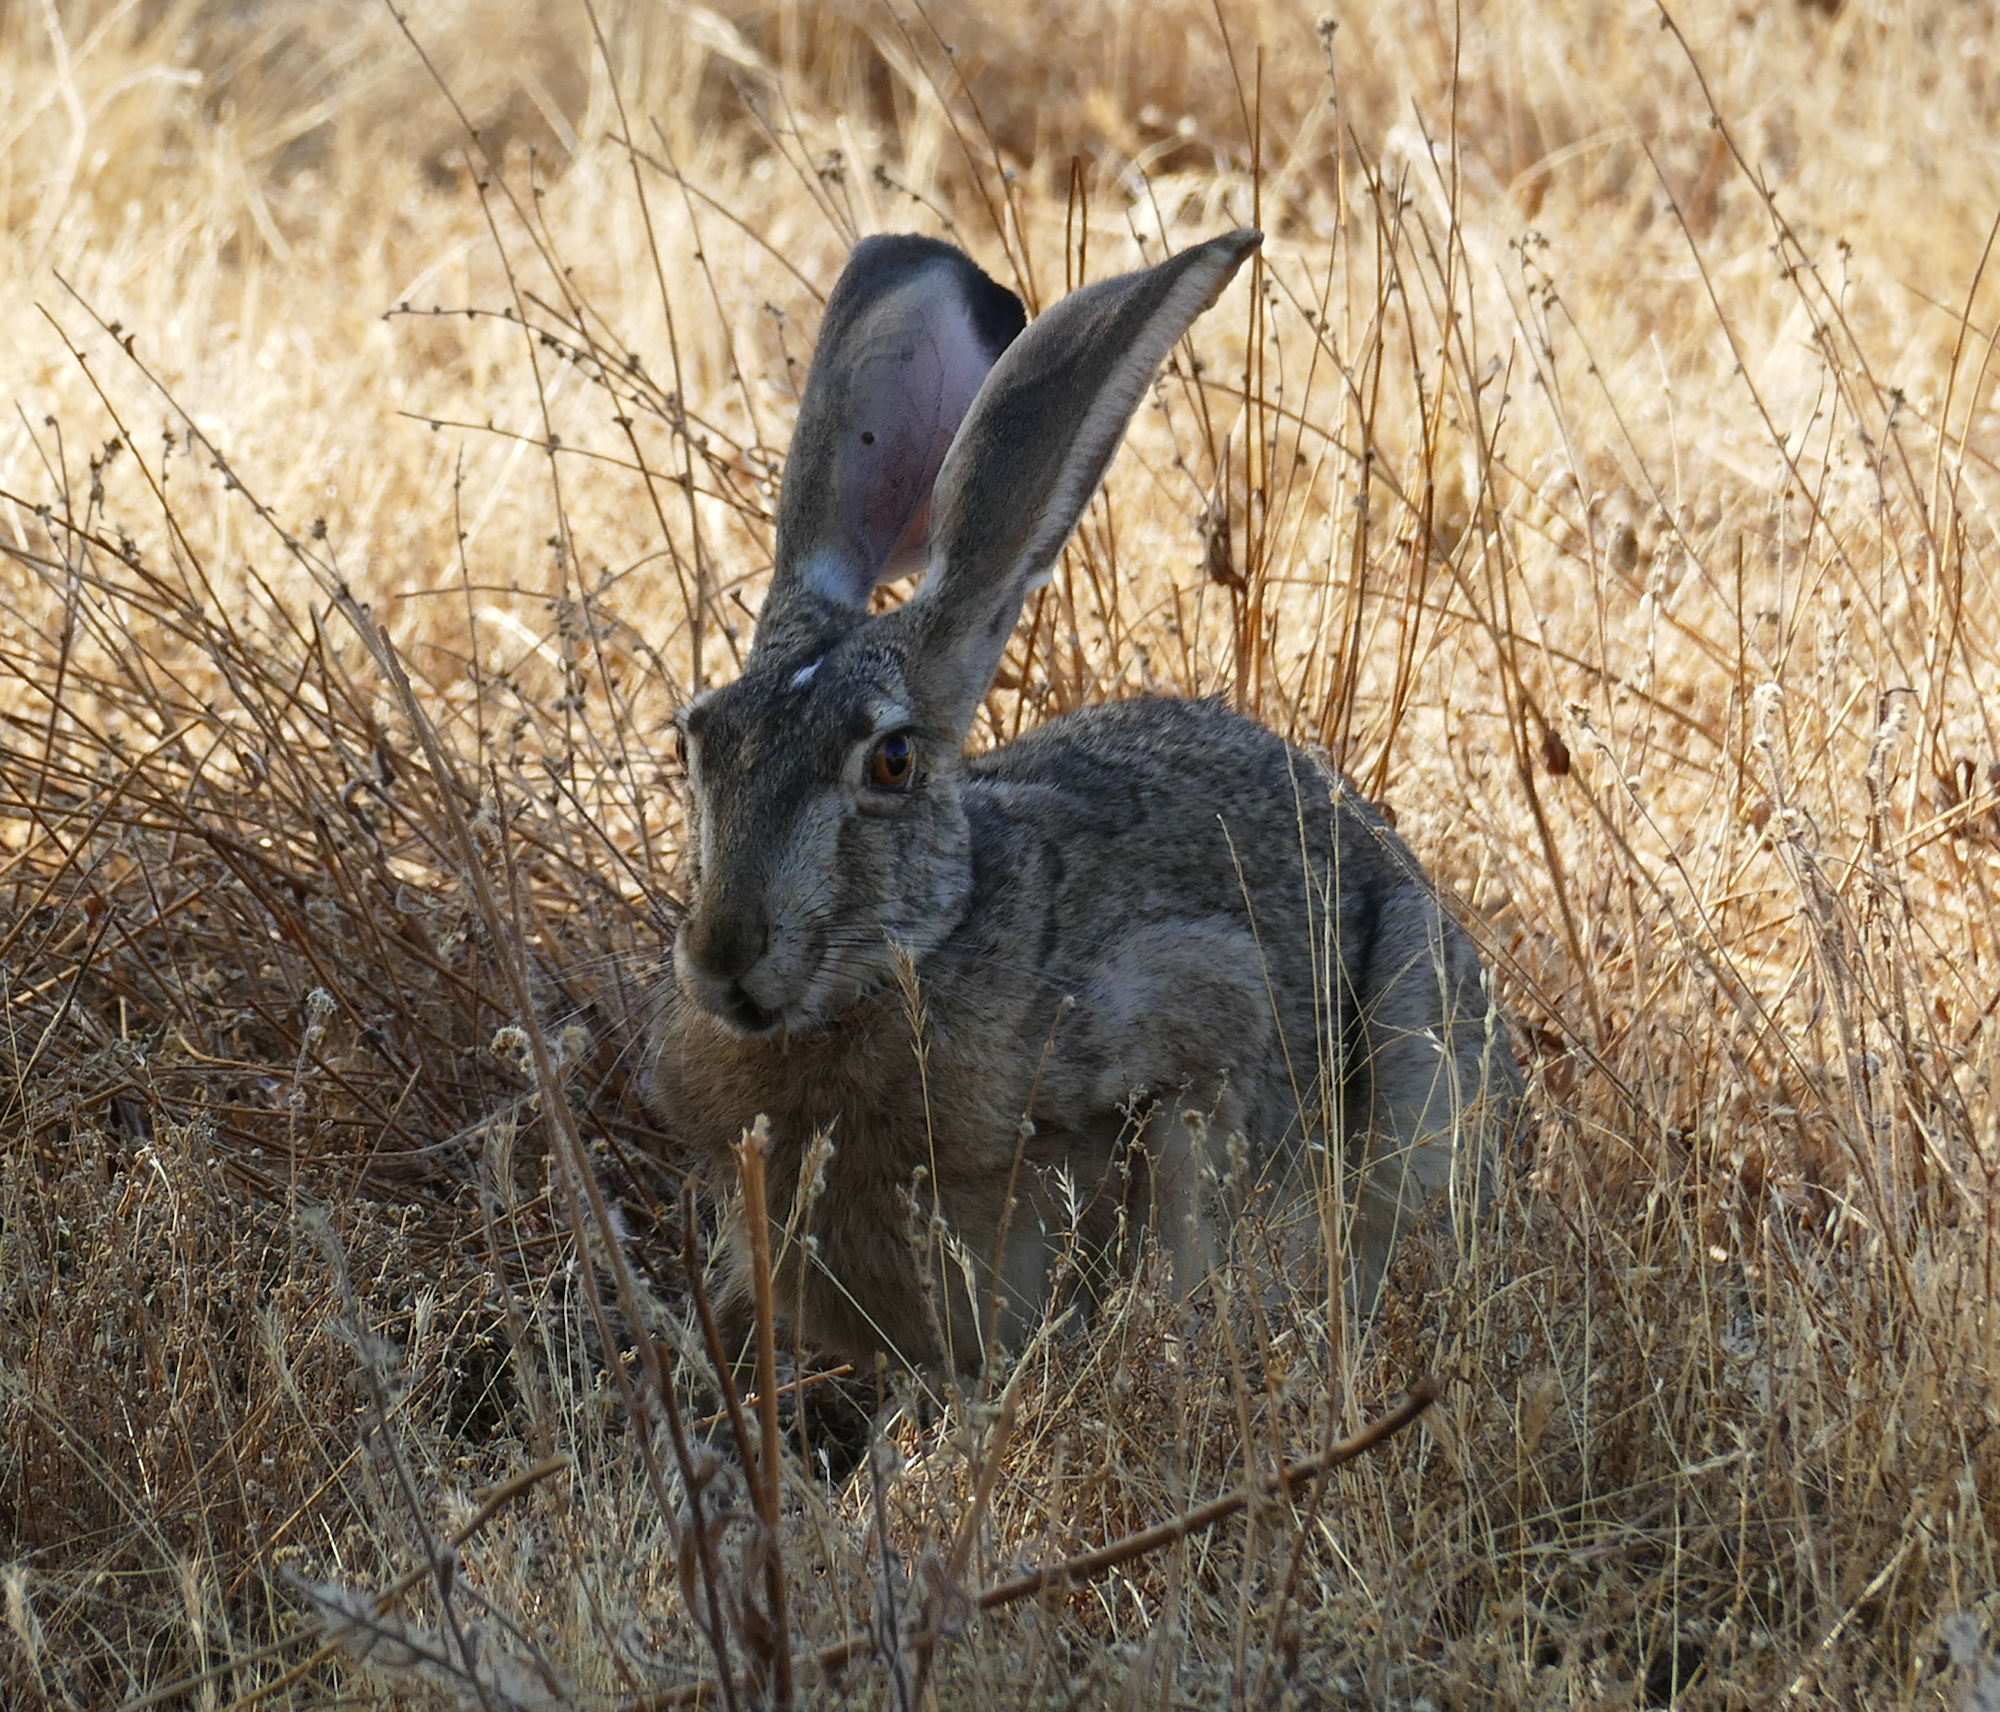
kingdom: Animalia
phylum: Chordata
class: Mammalia
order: Lagomorpha
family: Leporidae
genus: Lepus
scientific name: Lepus californicus
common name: Black-tailed jackrabbit
